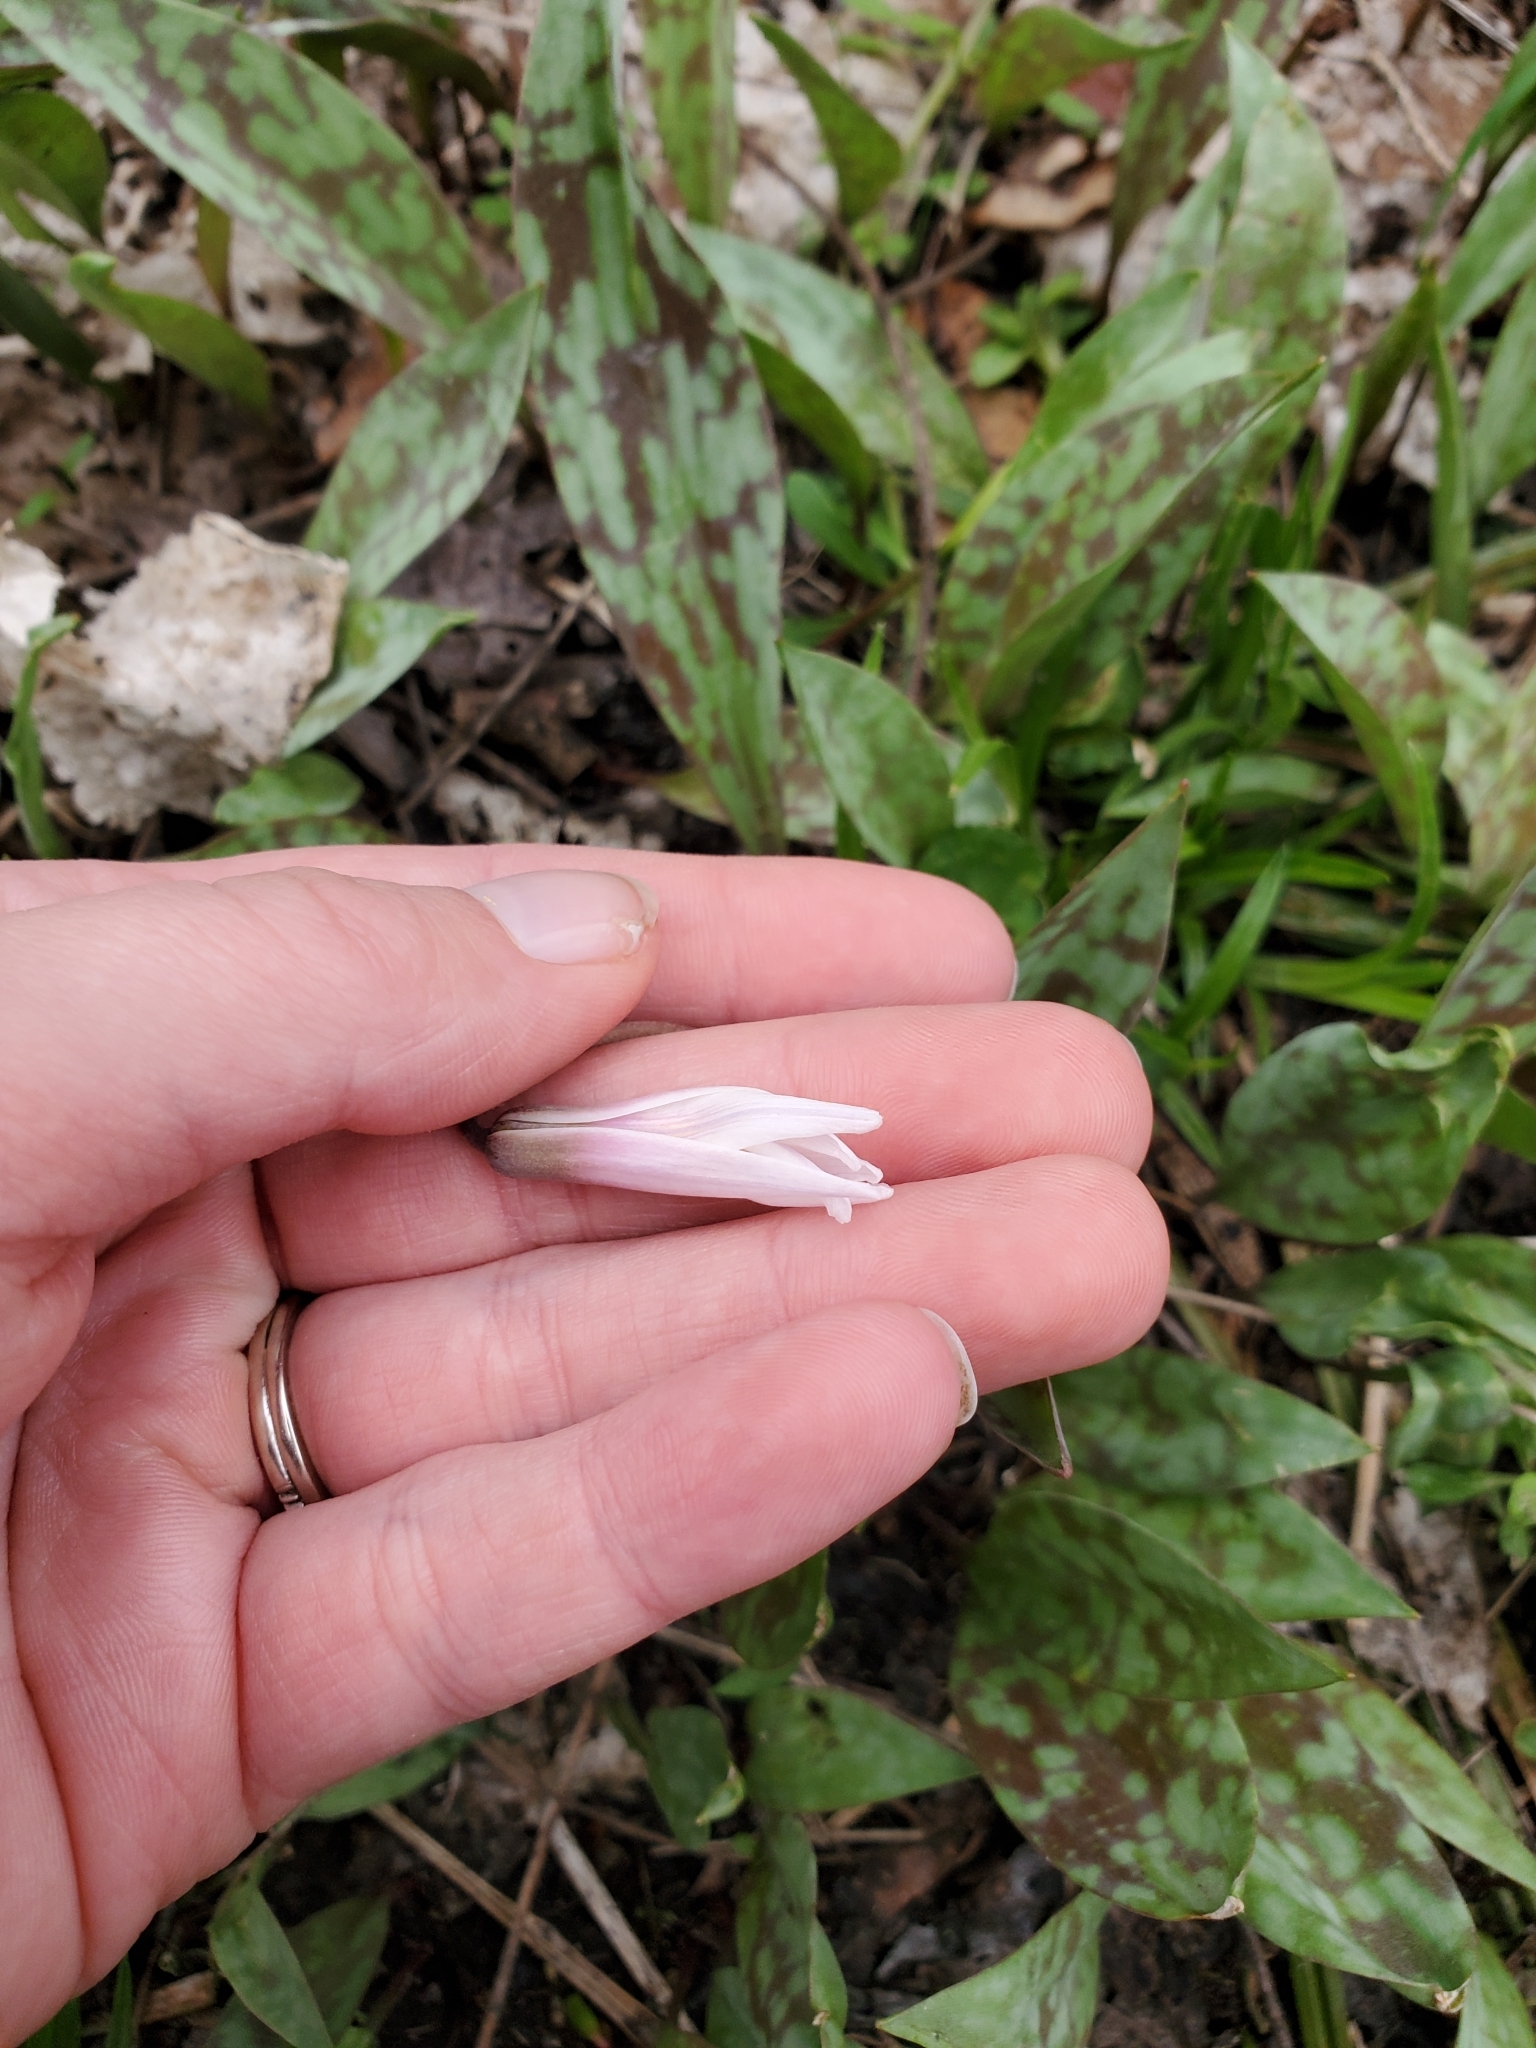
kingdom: Plantae
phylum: Tracheophyta
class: Liliopsida
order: Liliales
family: Liliaceae
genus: Erythronium
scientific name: Erythronium albidum
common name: White trout-lily
